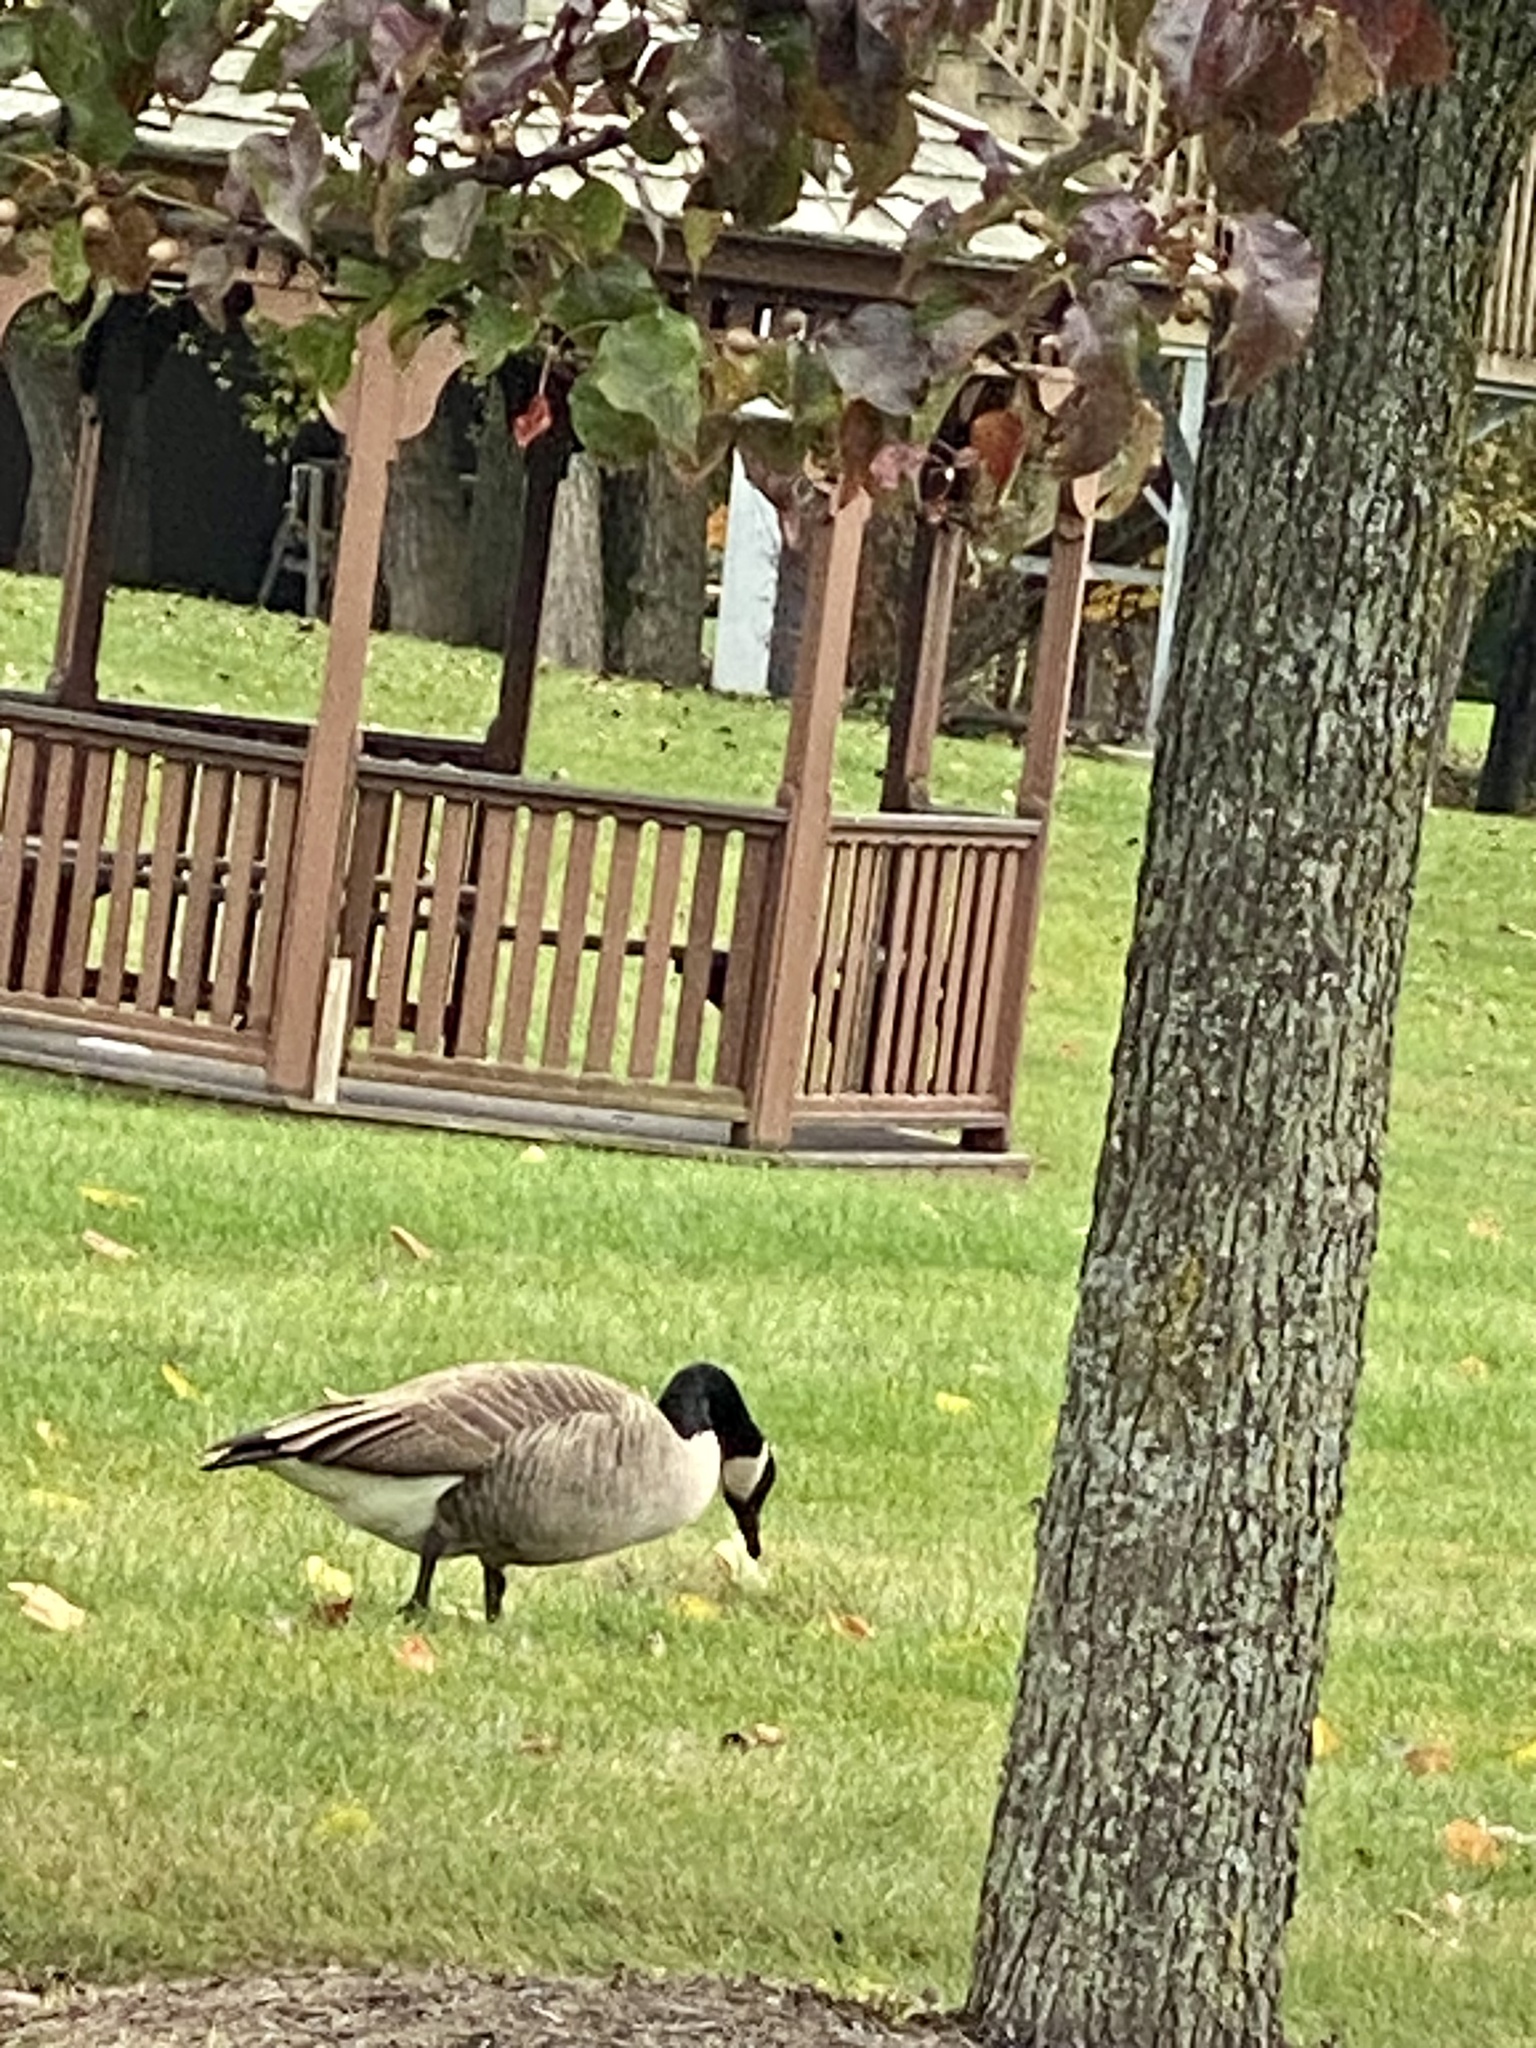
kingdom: Animalia
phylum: Chordata
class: Aves
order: Anseriformes
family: Anatidae
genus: Branta
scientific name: Branta canadensis
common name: Canada goose
